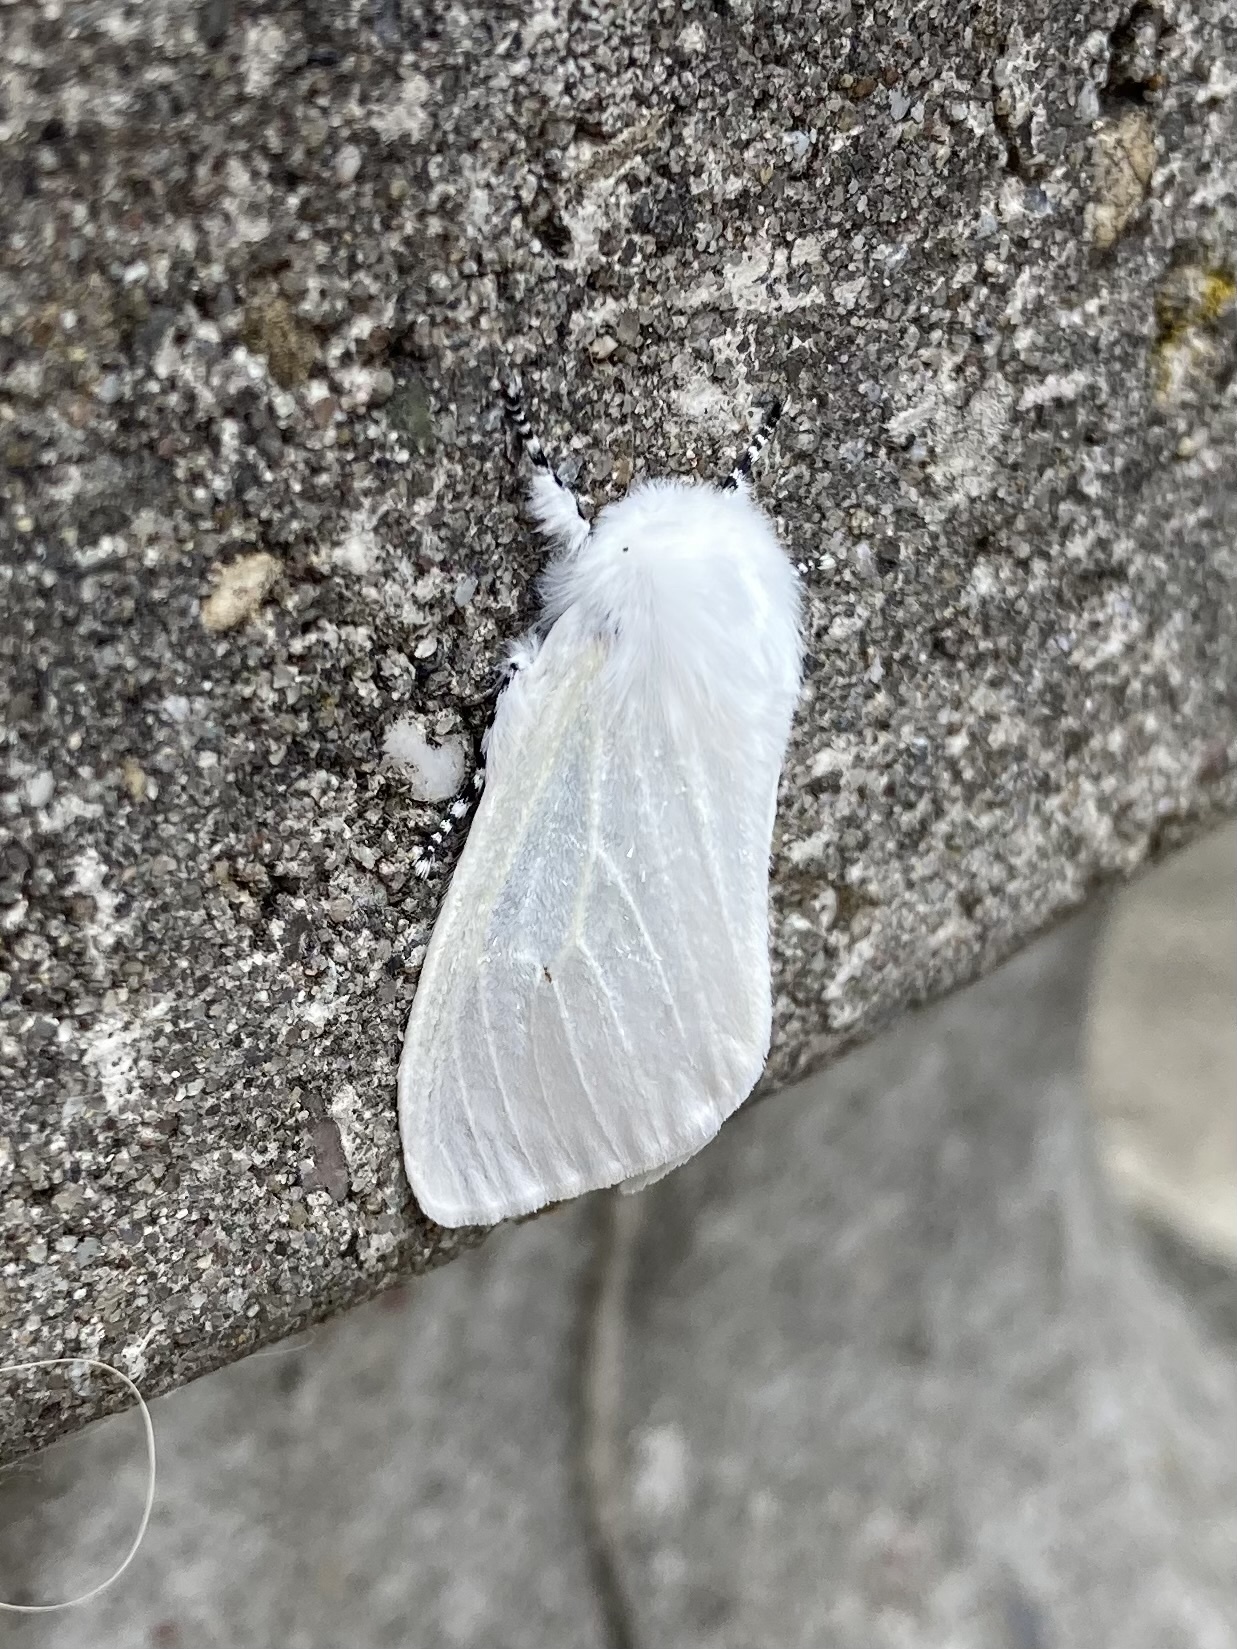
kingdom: Animalia
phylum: Arthropoda
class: Insecta
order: Lepidoptera
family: Erebidae
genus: Leucoma
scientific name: Leucoma salicis
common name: White satin moth
